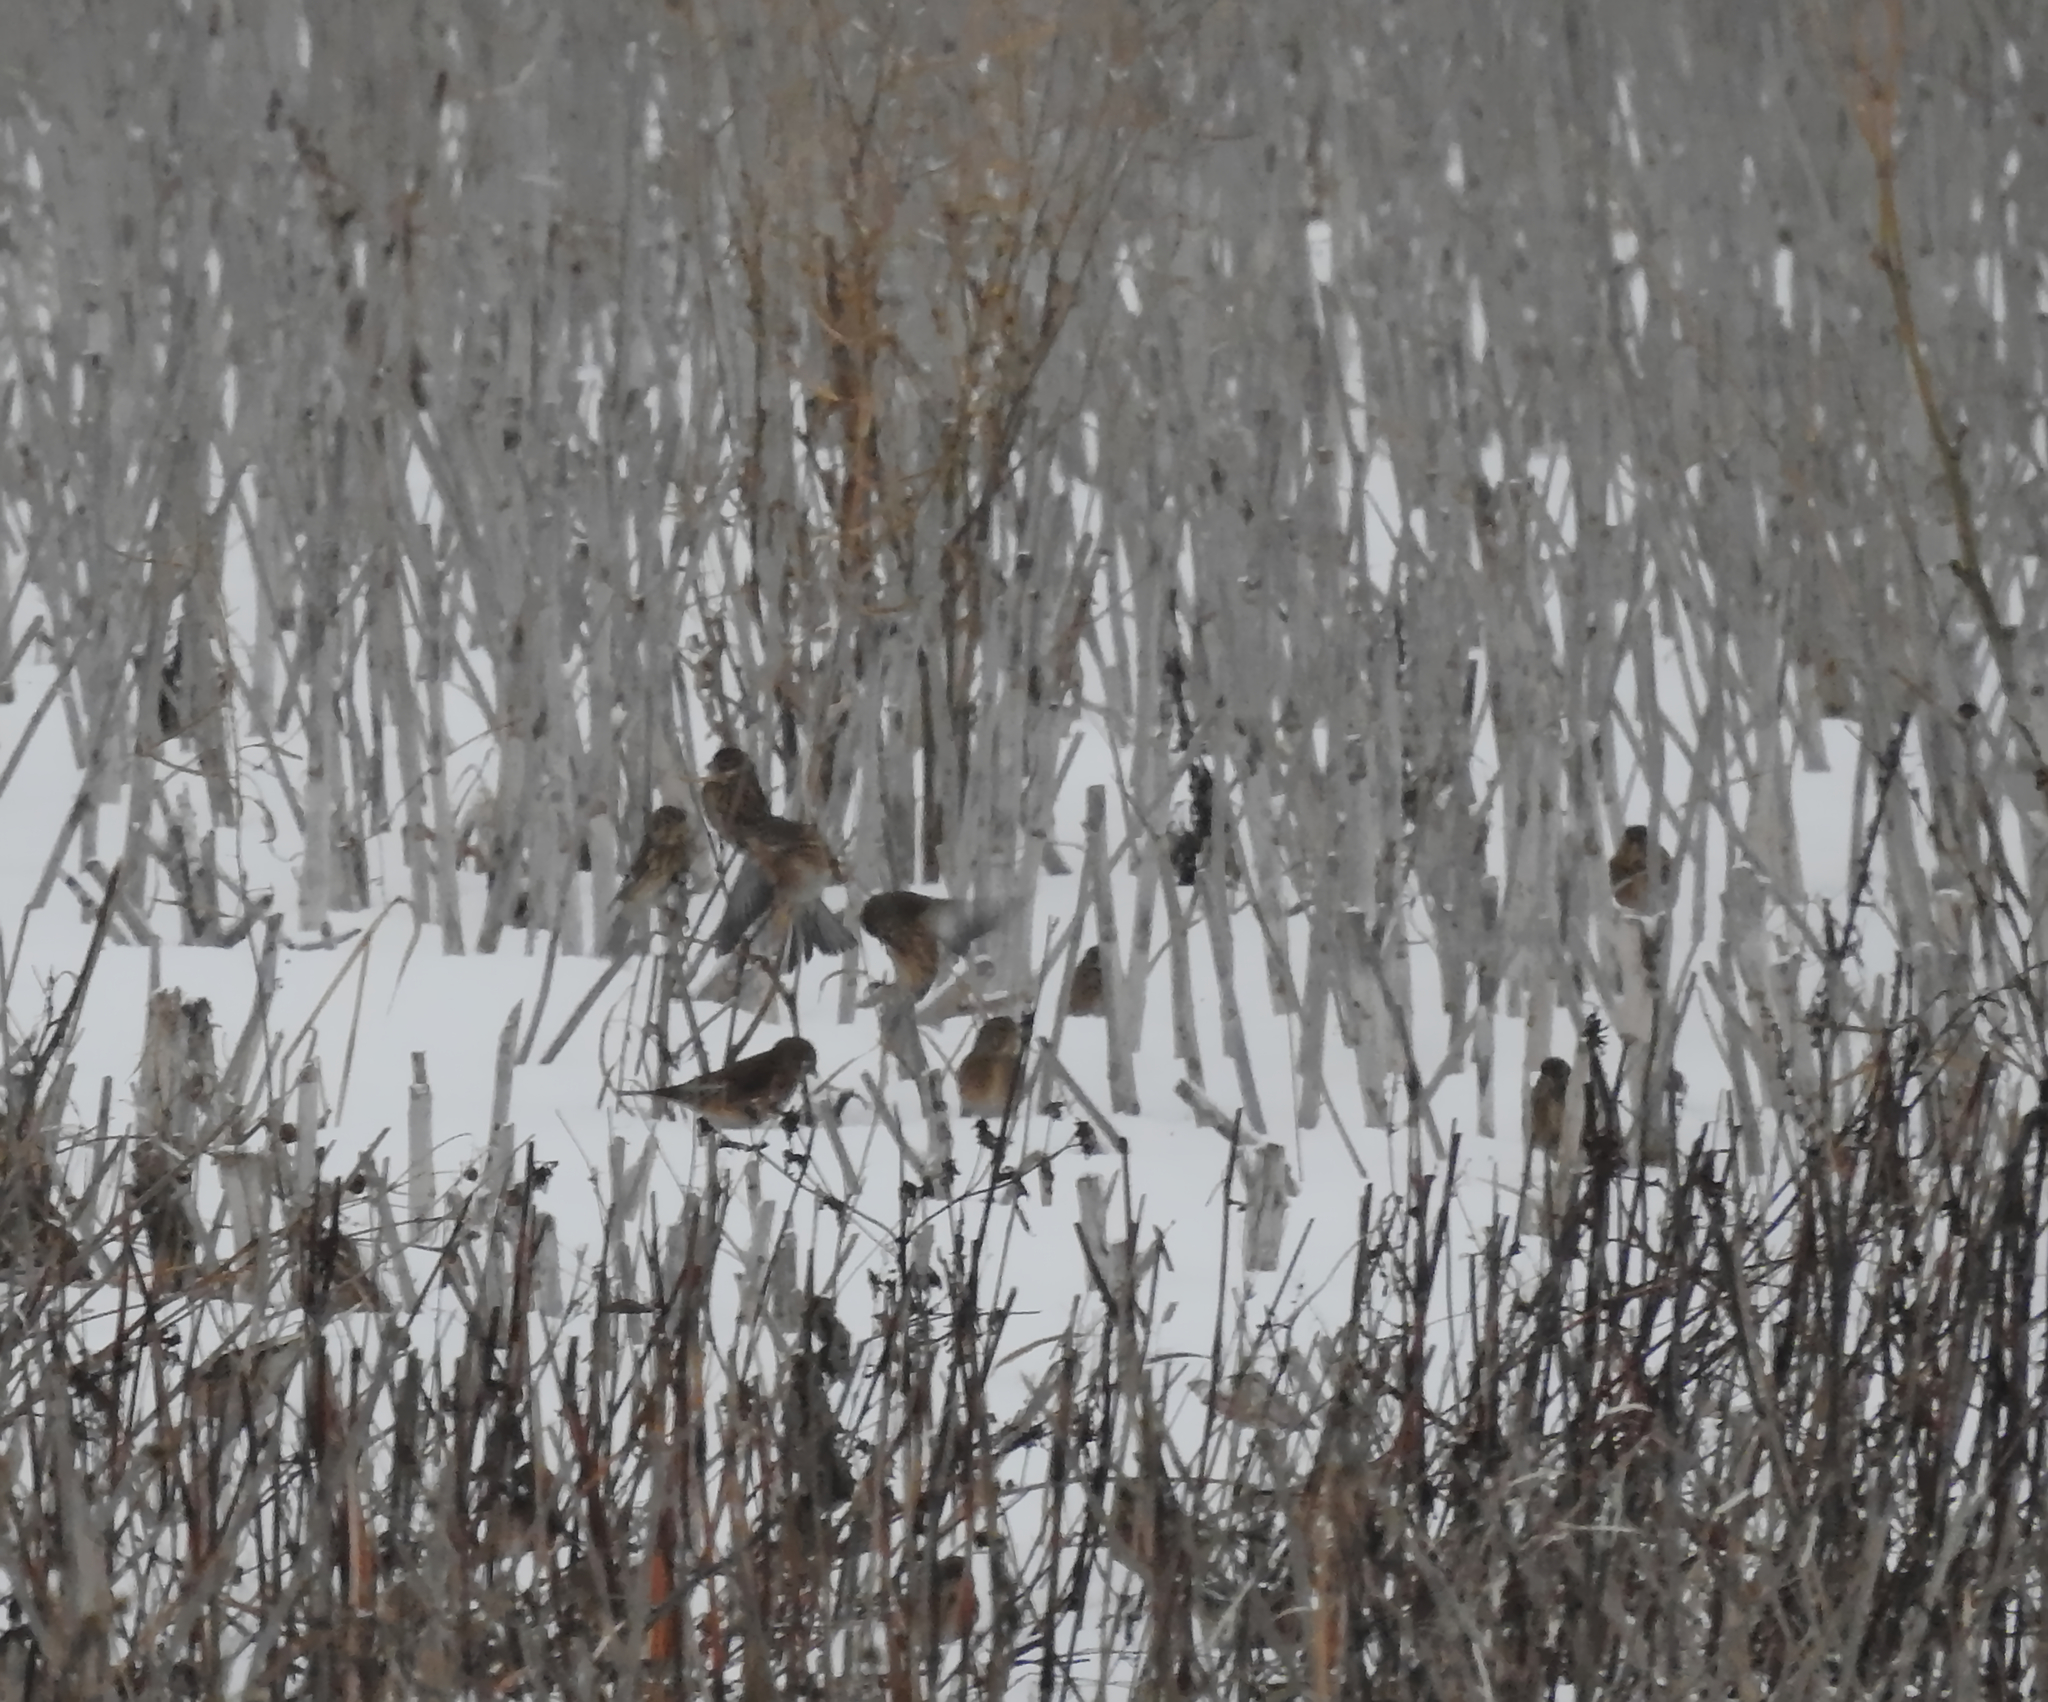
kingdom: Animalia
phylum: Chordata
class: Aves
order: Passeriformes
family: Fringillidae
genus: Linaria
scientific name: Linaria cannabina
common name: Common linnet
